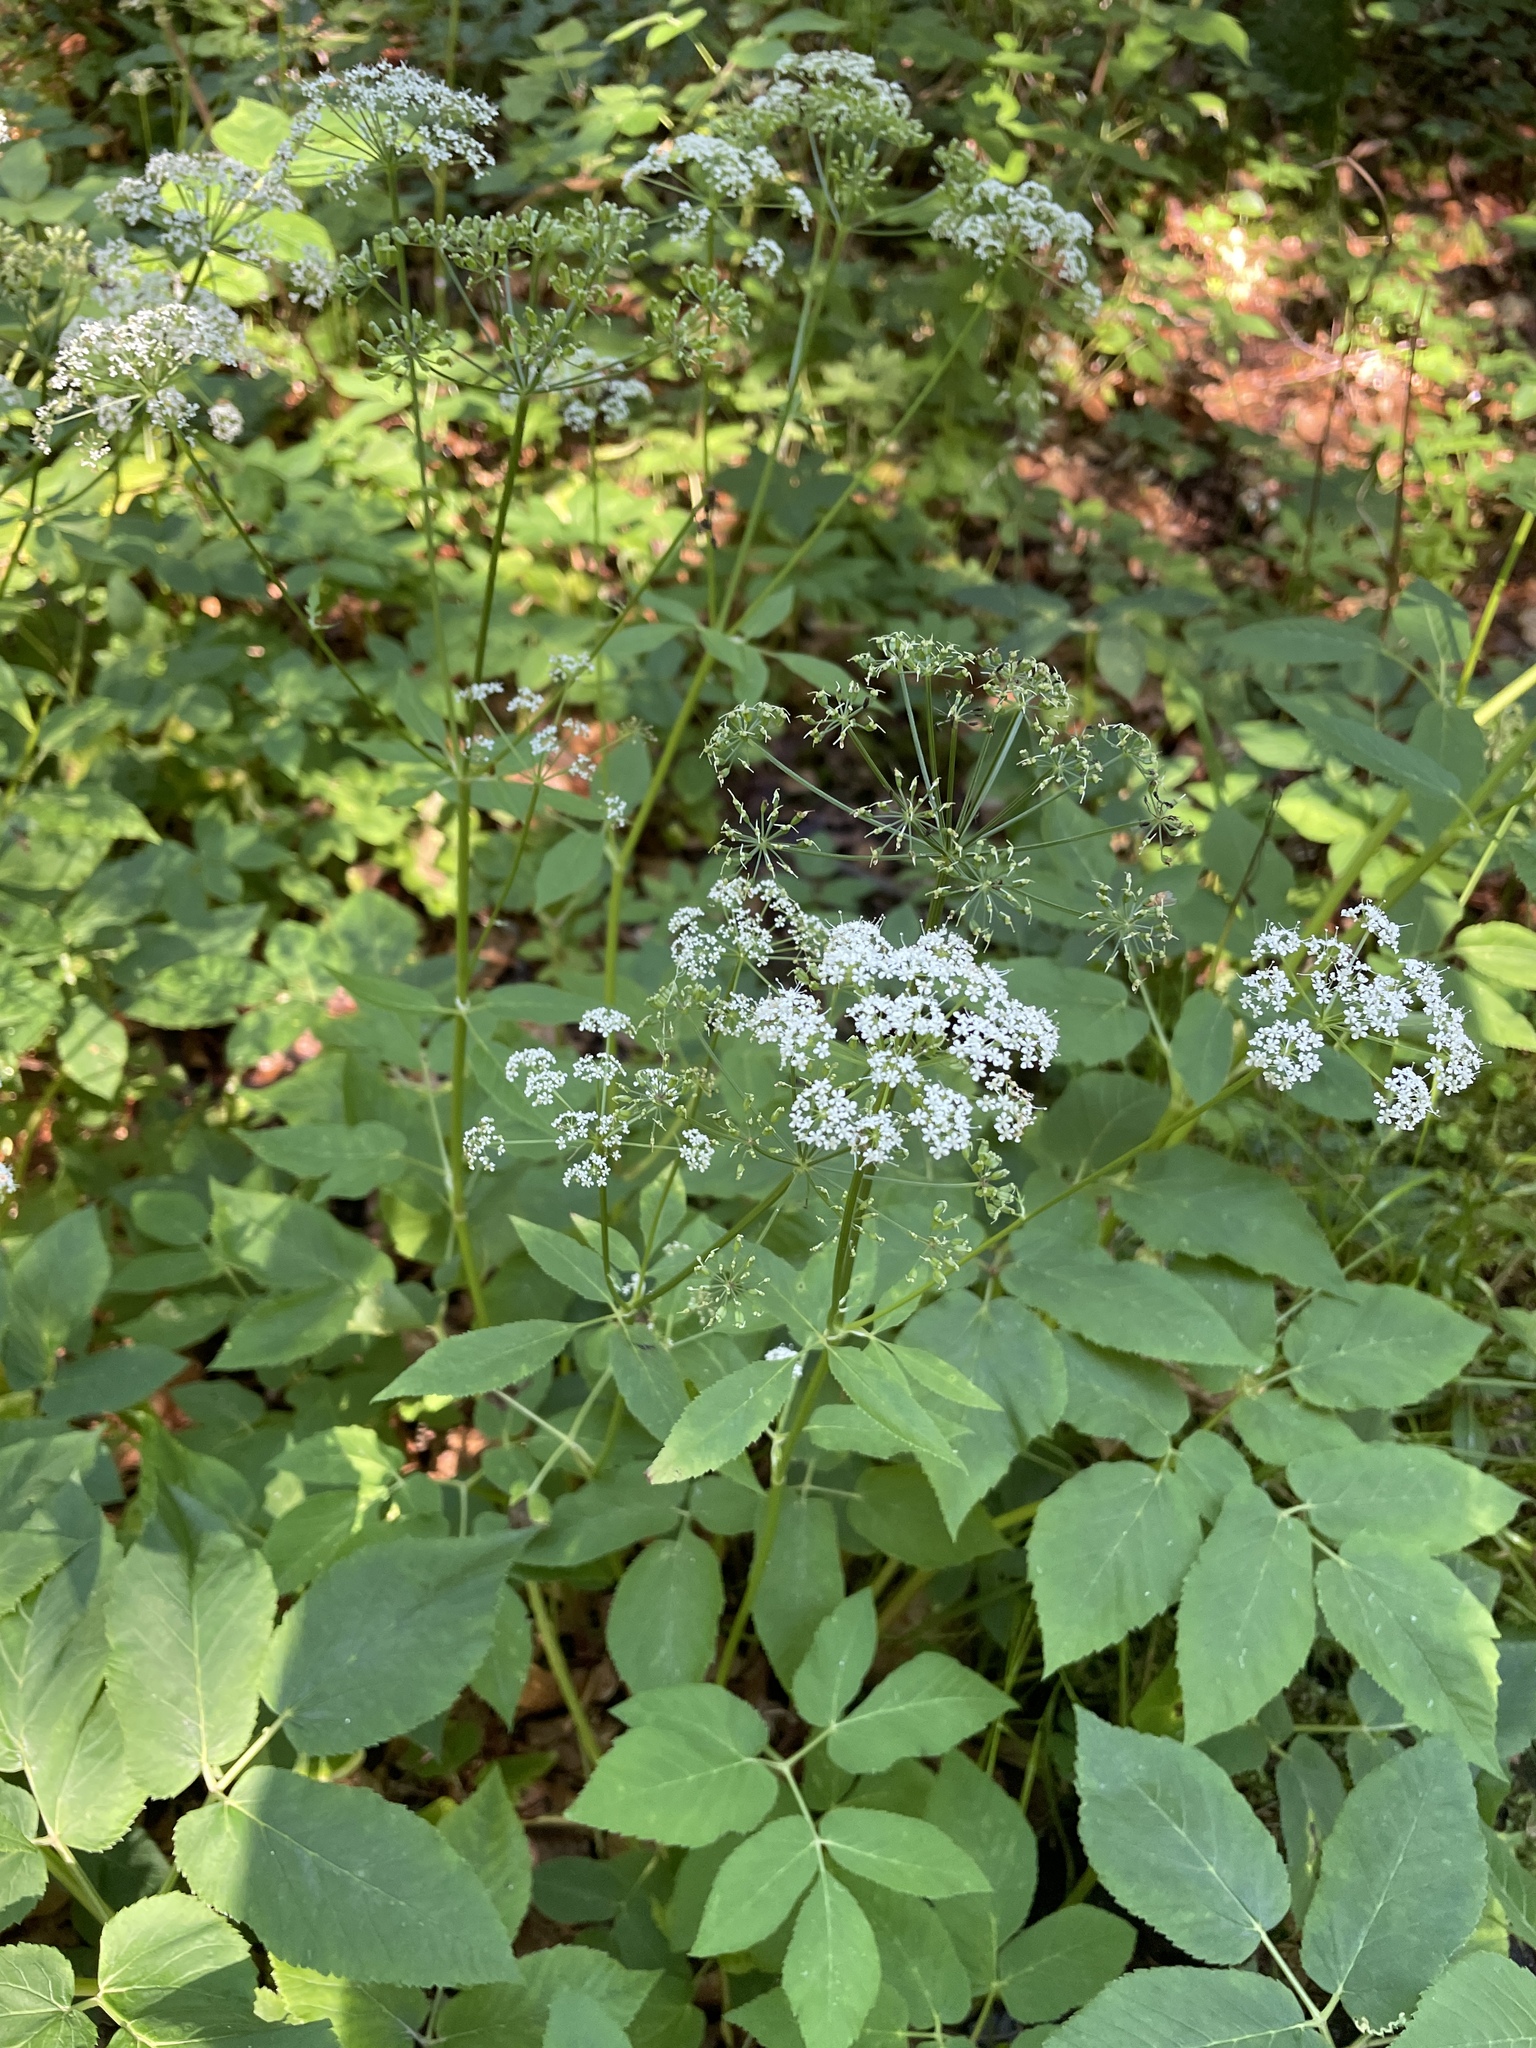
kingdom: Plantae
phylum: Tracheophyta
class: Magnoliopsida
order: Apiales
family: Apiaceae
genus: Aegopodium
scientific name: Aegopodium podagraria
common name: Ground-elder
